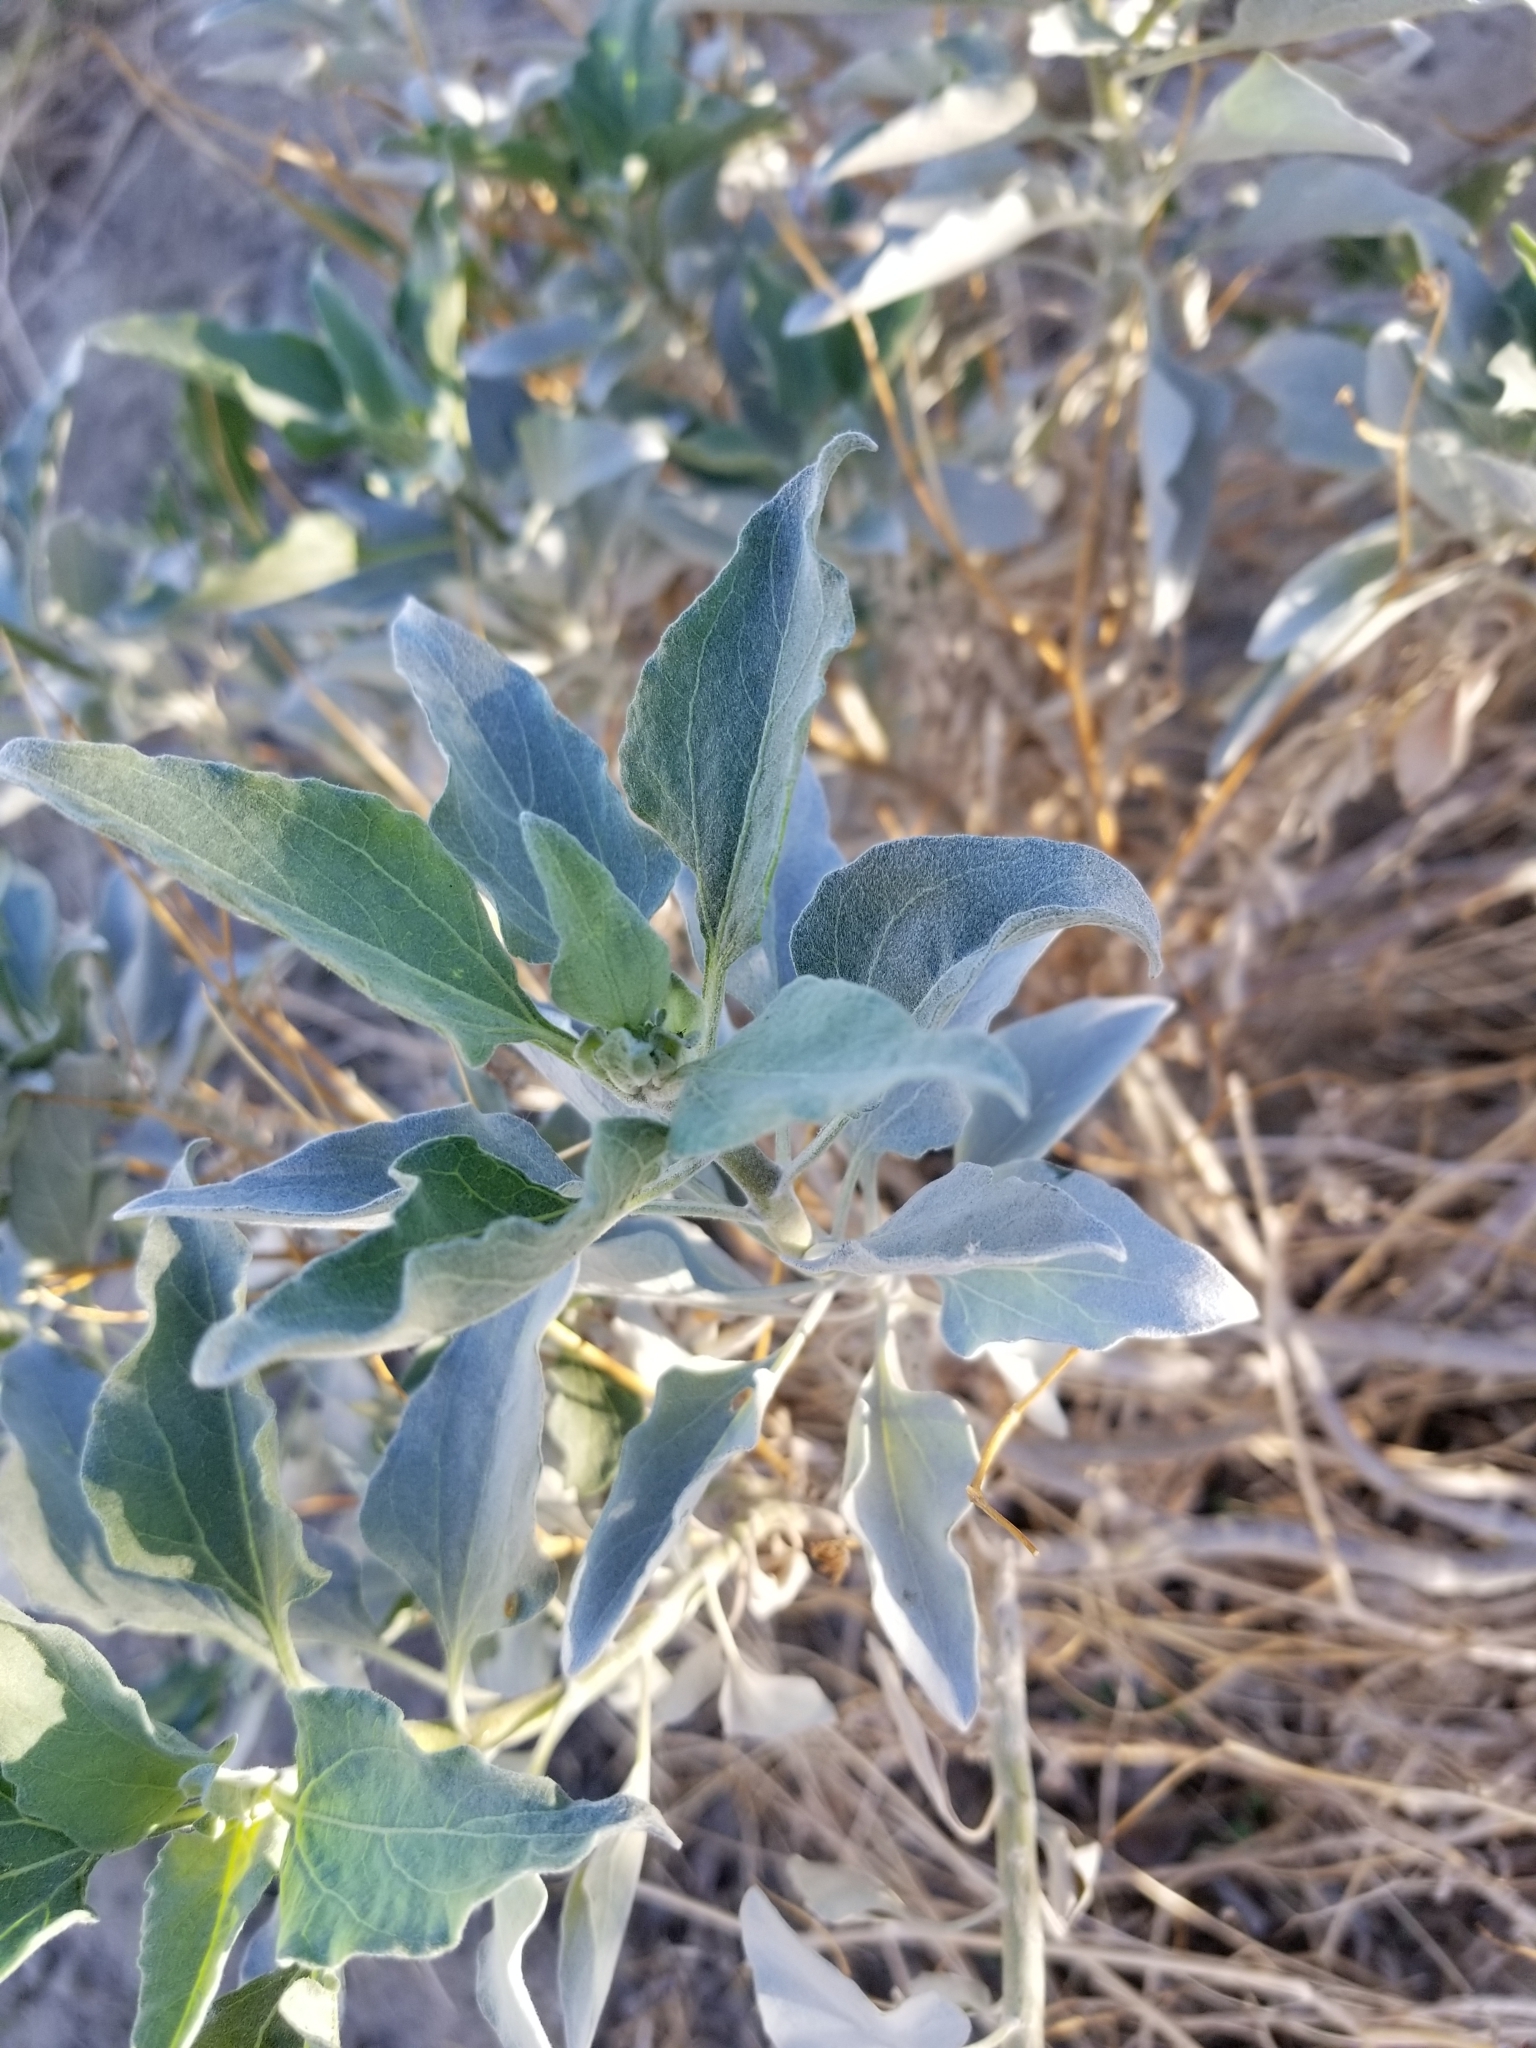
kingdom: Plantae
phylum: Tracheophyta
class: Magnoliopsida
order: Asterales
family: Asteraceae
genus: Encelia
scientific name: Encelia farinosa
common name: Brittlebush
